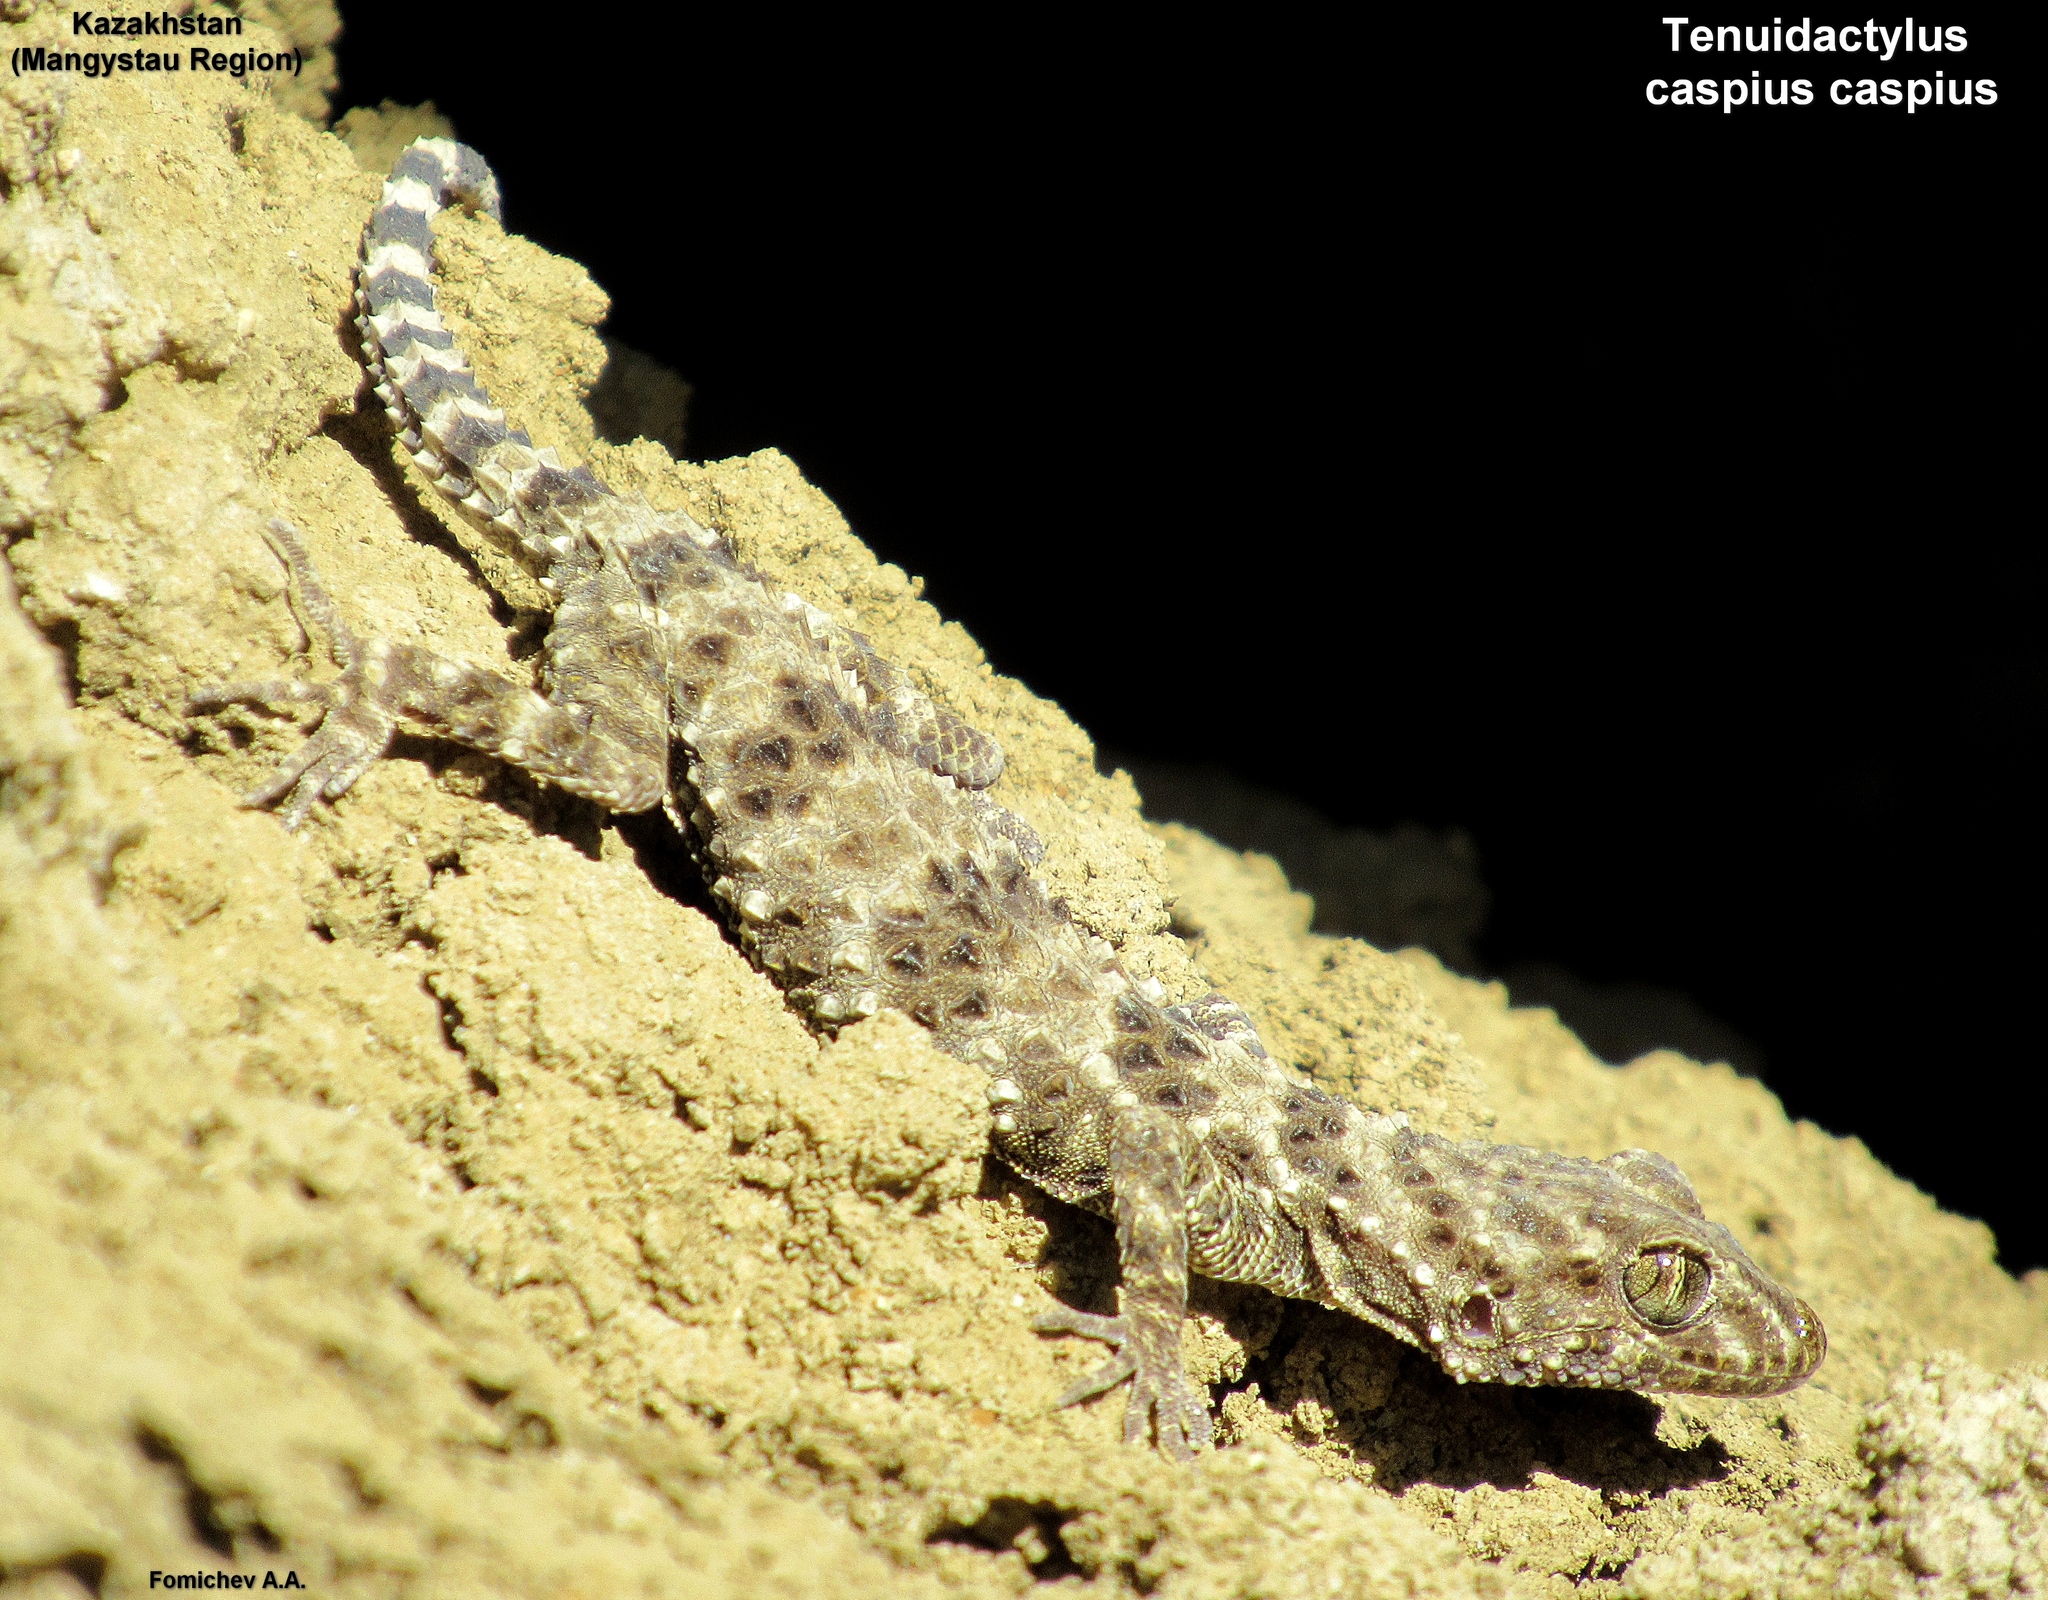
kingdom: Animalia
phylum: Chordata
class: Squamata
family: Gekkonidae
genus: Tenuidactylus
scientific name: Tenuidactylus caspius
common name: Caspian bent-toed gecko
